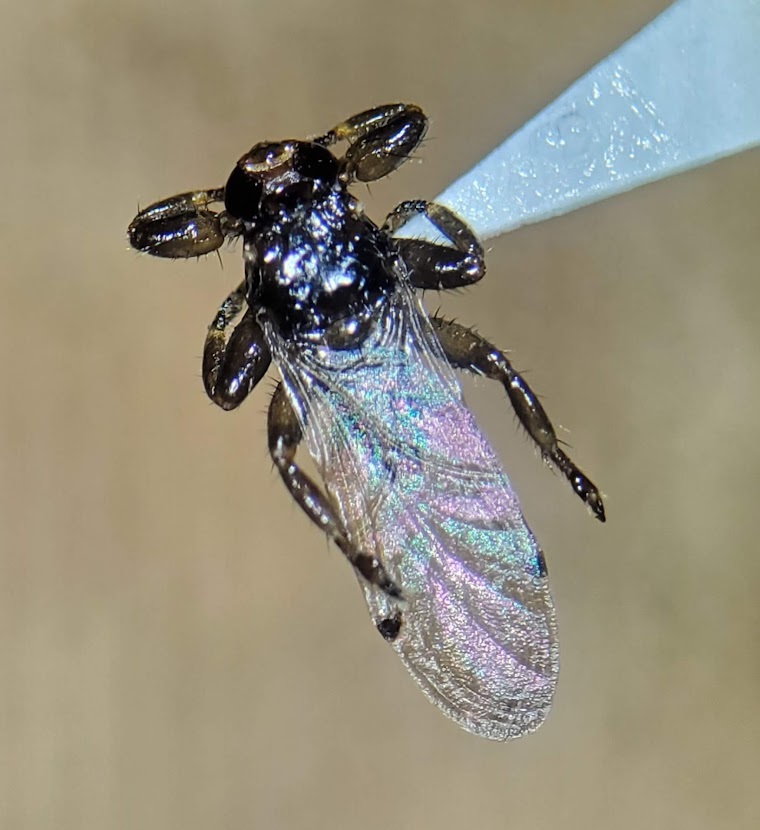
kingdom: Animalia
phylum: Arthropoda
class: Insecta
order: Diptera
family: Hippoboscidae
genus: Lipoptena
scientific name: Lipoptena depressa
